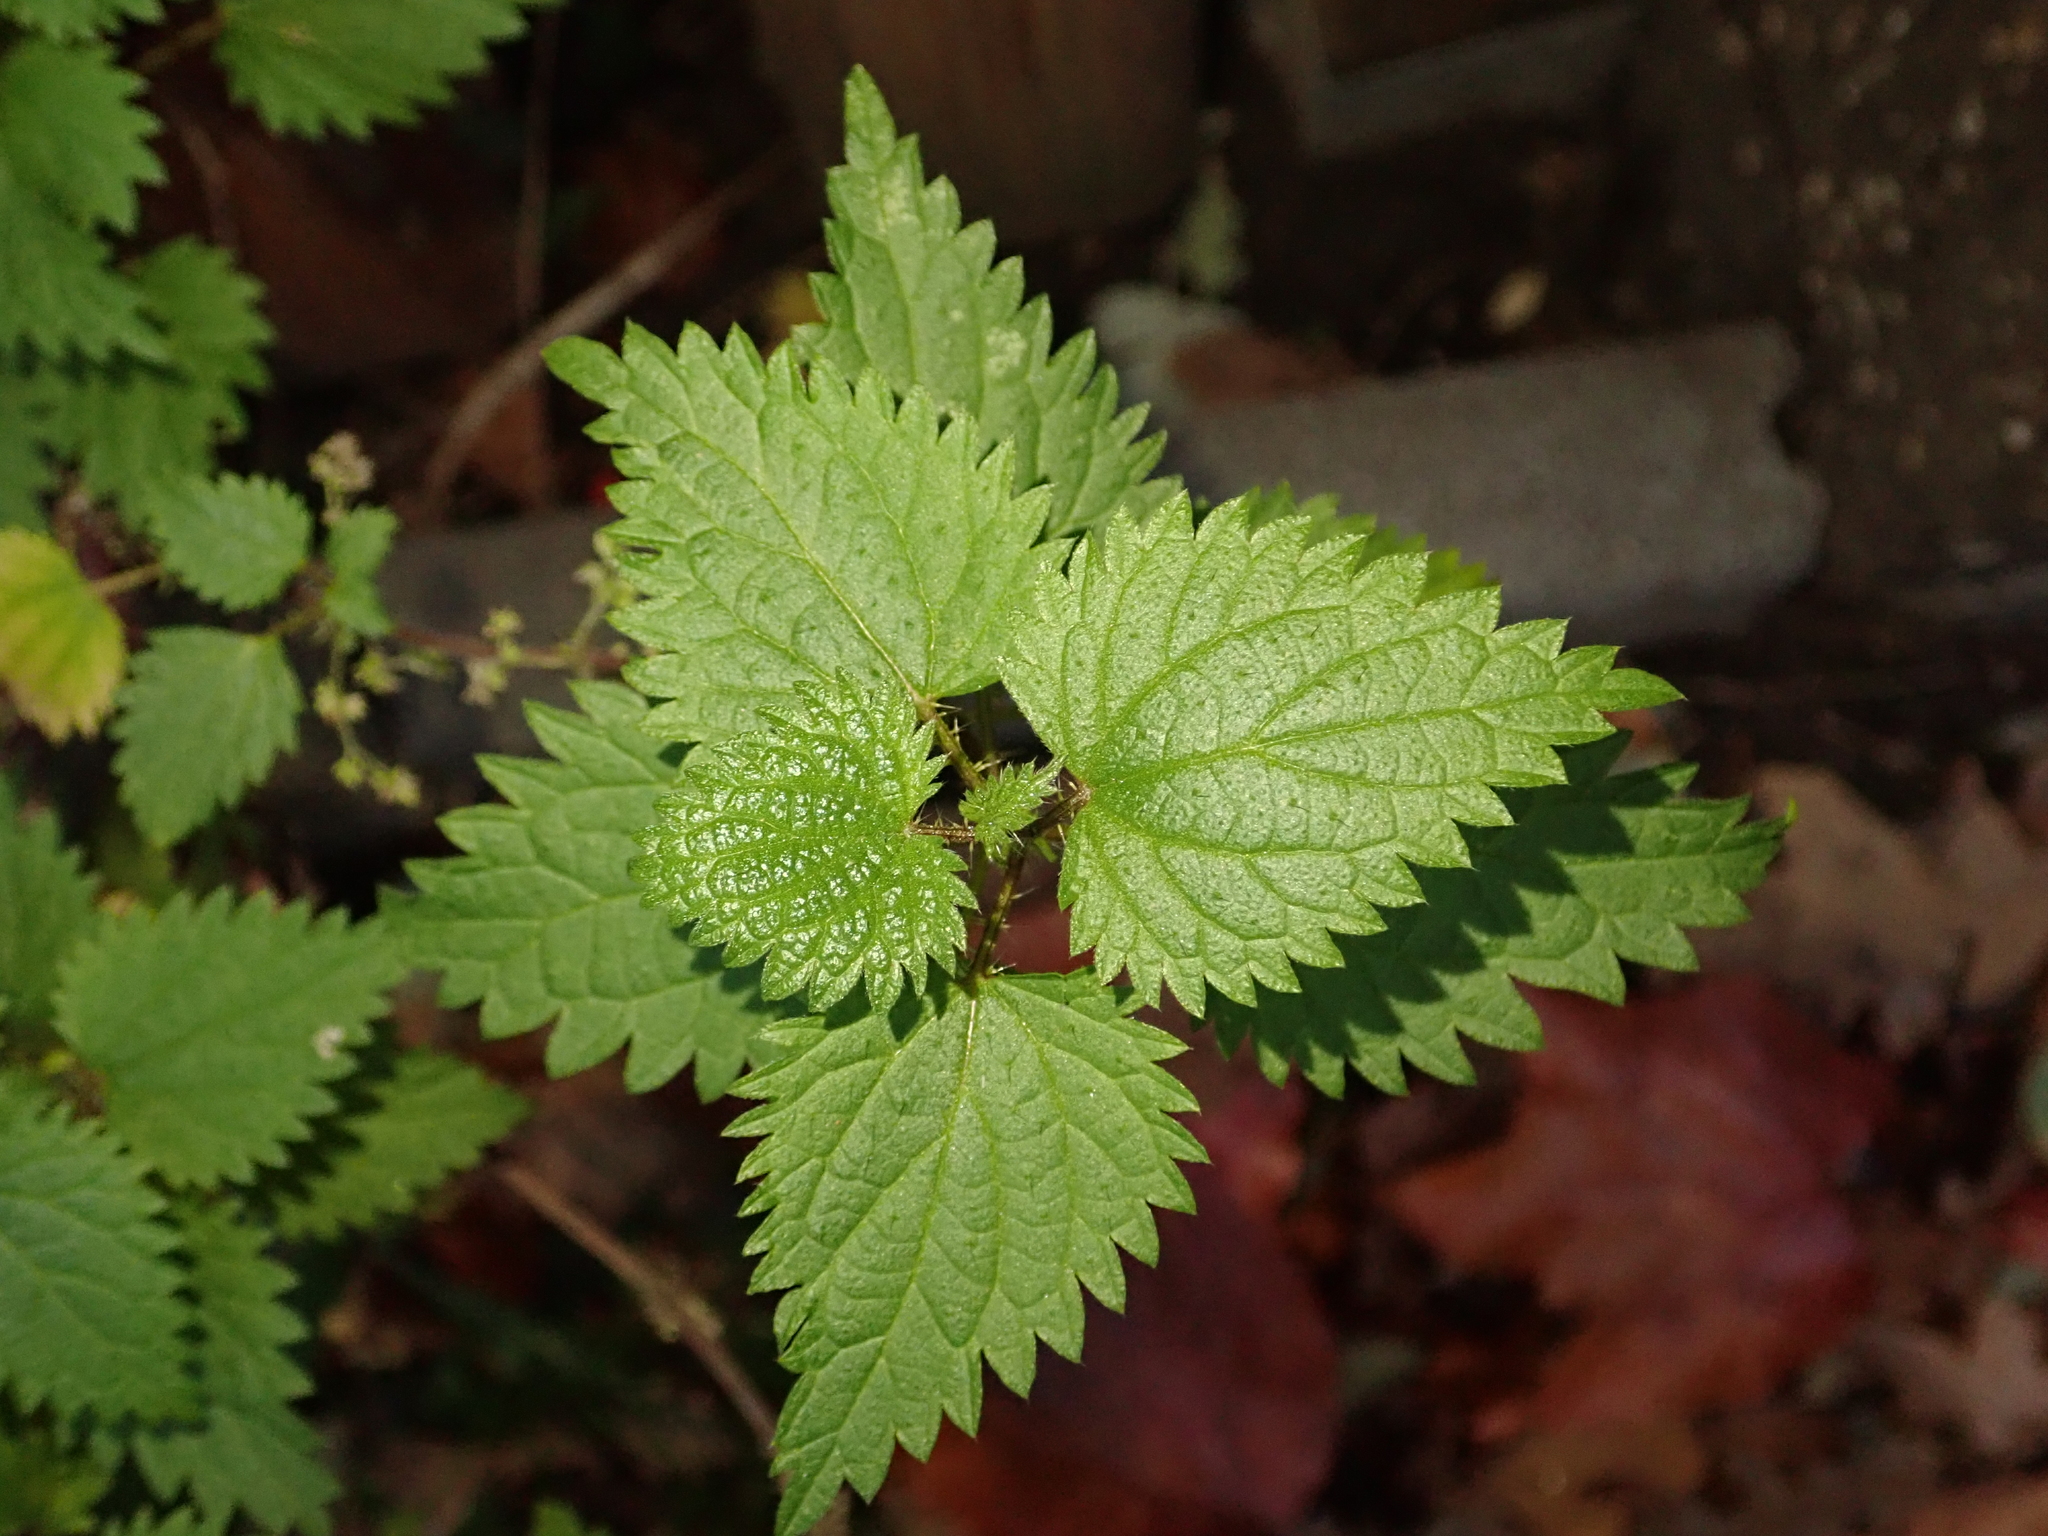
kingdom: Plantae
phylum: Tracheophyta
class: Magnoliopsida
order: Rosales
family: Urticaceae
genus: Urtica
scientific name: Urtica dioica
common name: Common nettle
